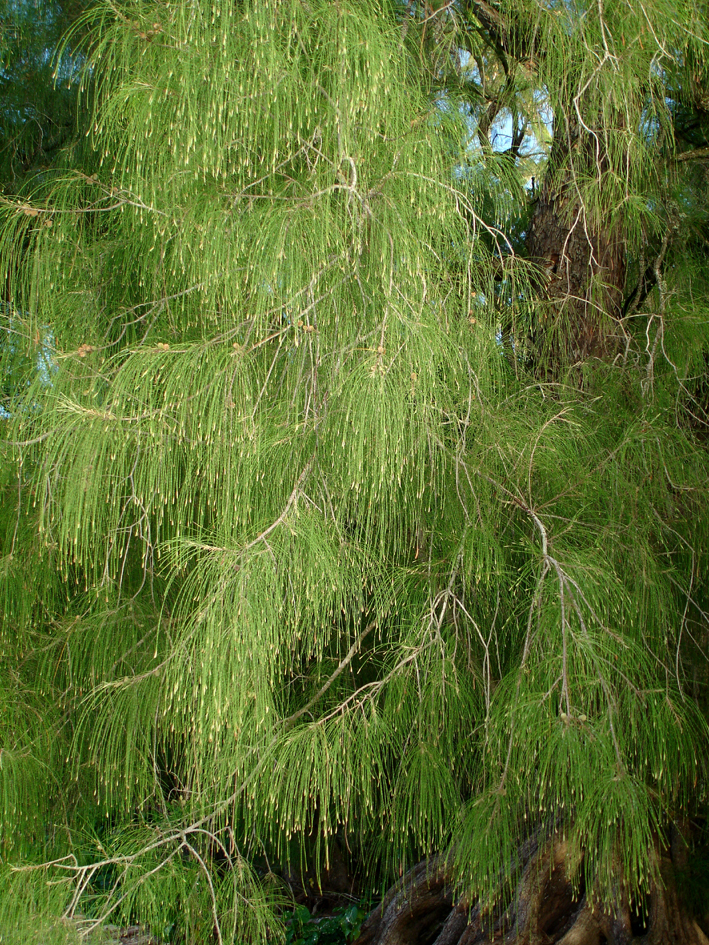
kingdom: Plantae
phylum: Tracheophyta
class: Magnoliopsida
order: Fagales
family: Casuarinaceae
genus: Casuarina
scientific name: Casuarina equisetifolia
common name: Beach sheoak
